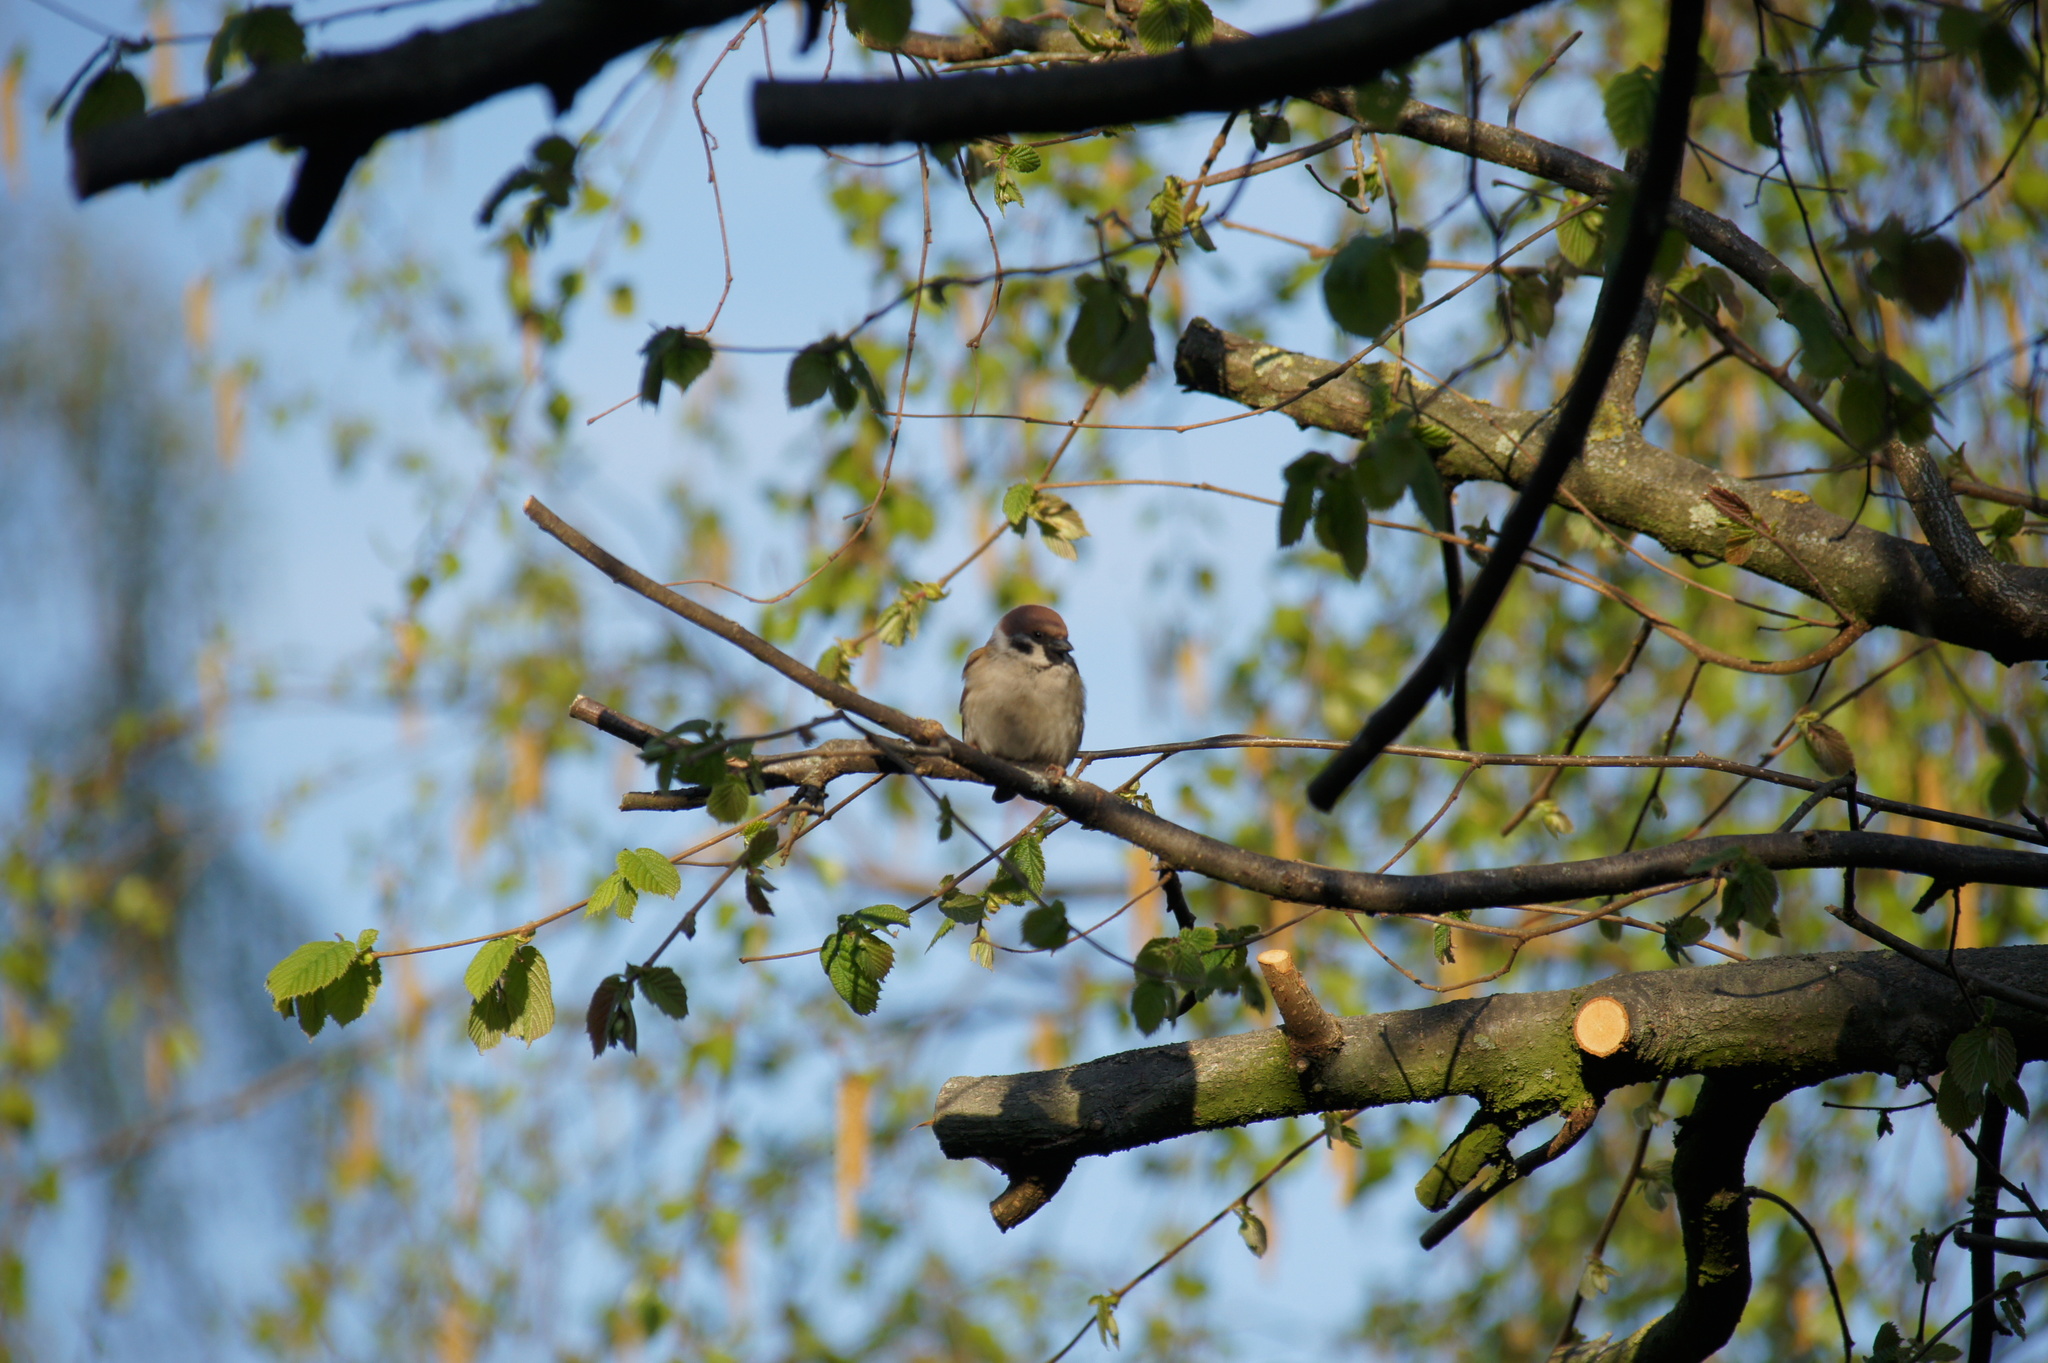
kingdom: Animalia
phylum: Chordata
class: Aves
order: Passeriformes
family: Passeridae
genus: Passer
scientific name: Passer montanus
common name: Eurasian tree sparrow
